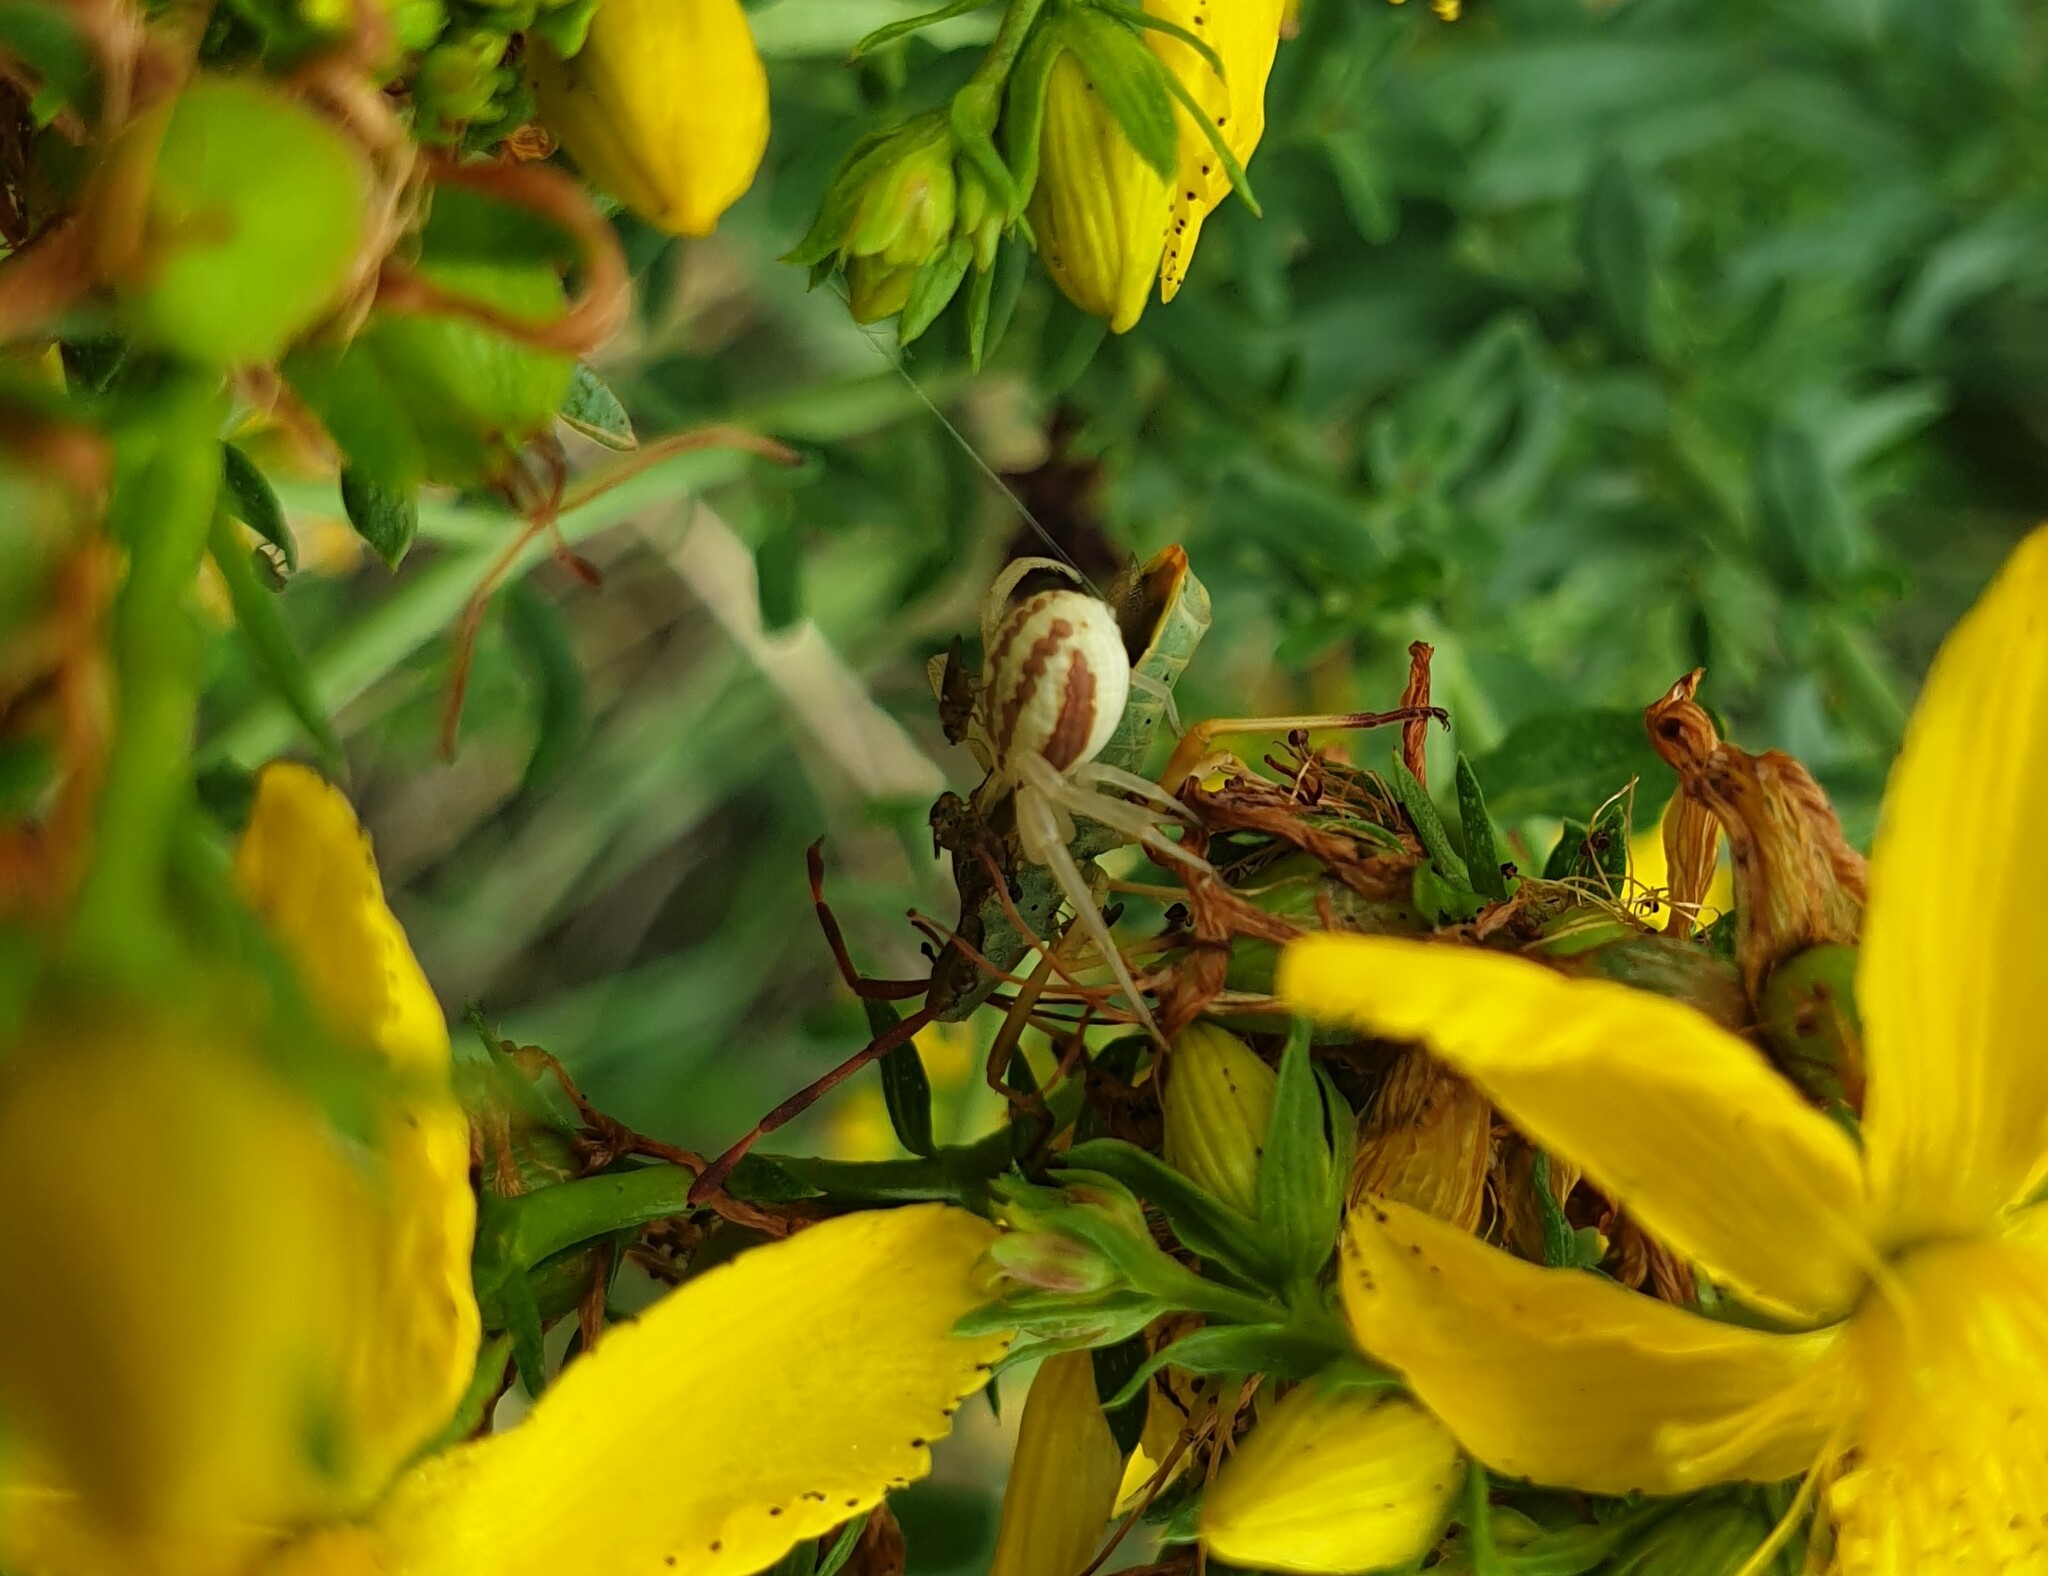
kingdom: Animalia
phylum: Arthropoda
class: Arachnida
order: Araneae
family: Thomisidae
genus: Runcinia
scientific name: Runcinia grammica
